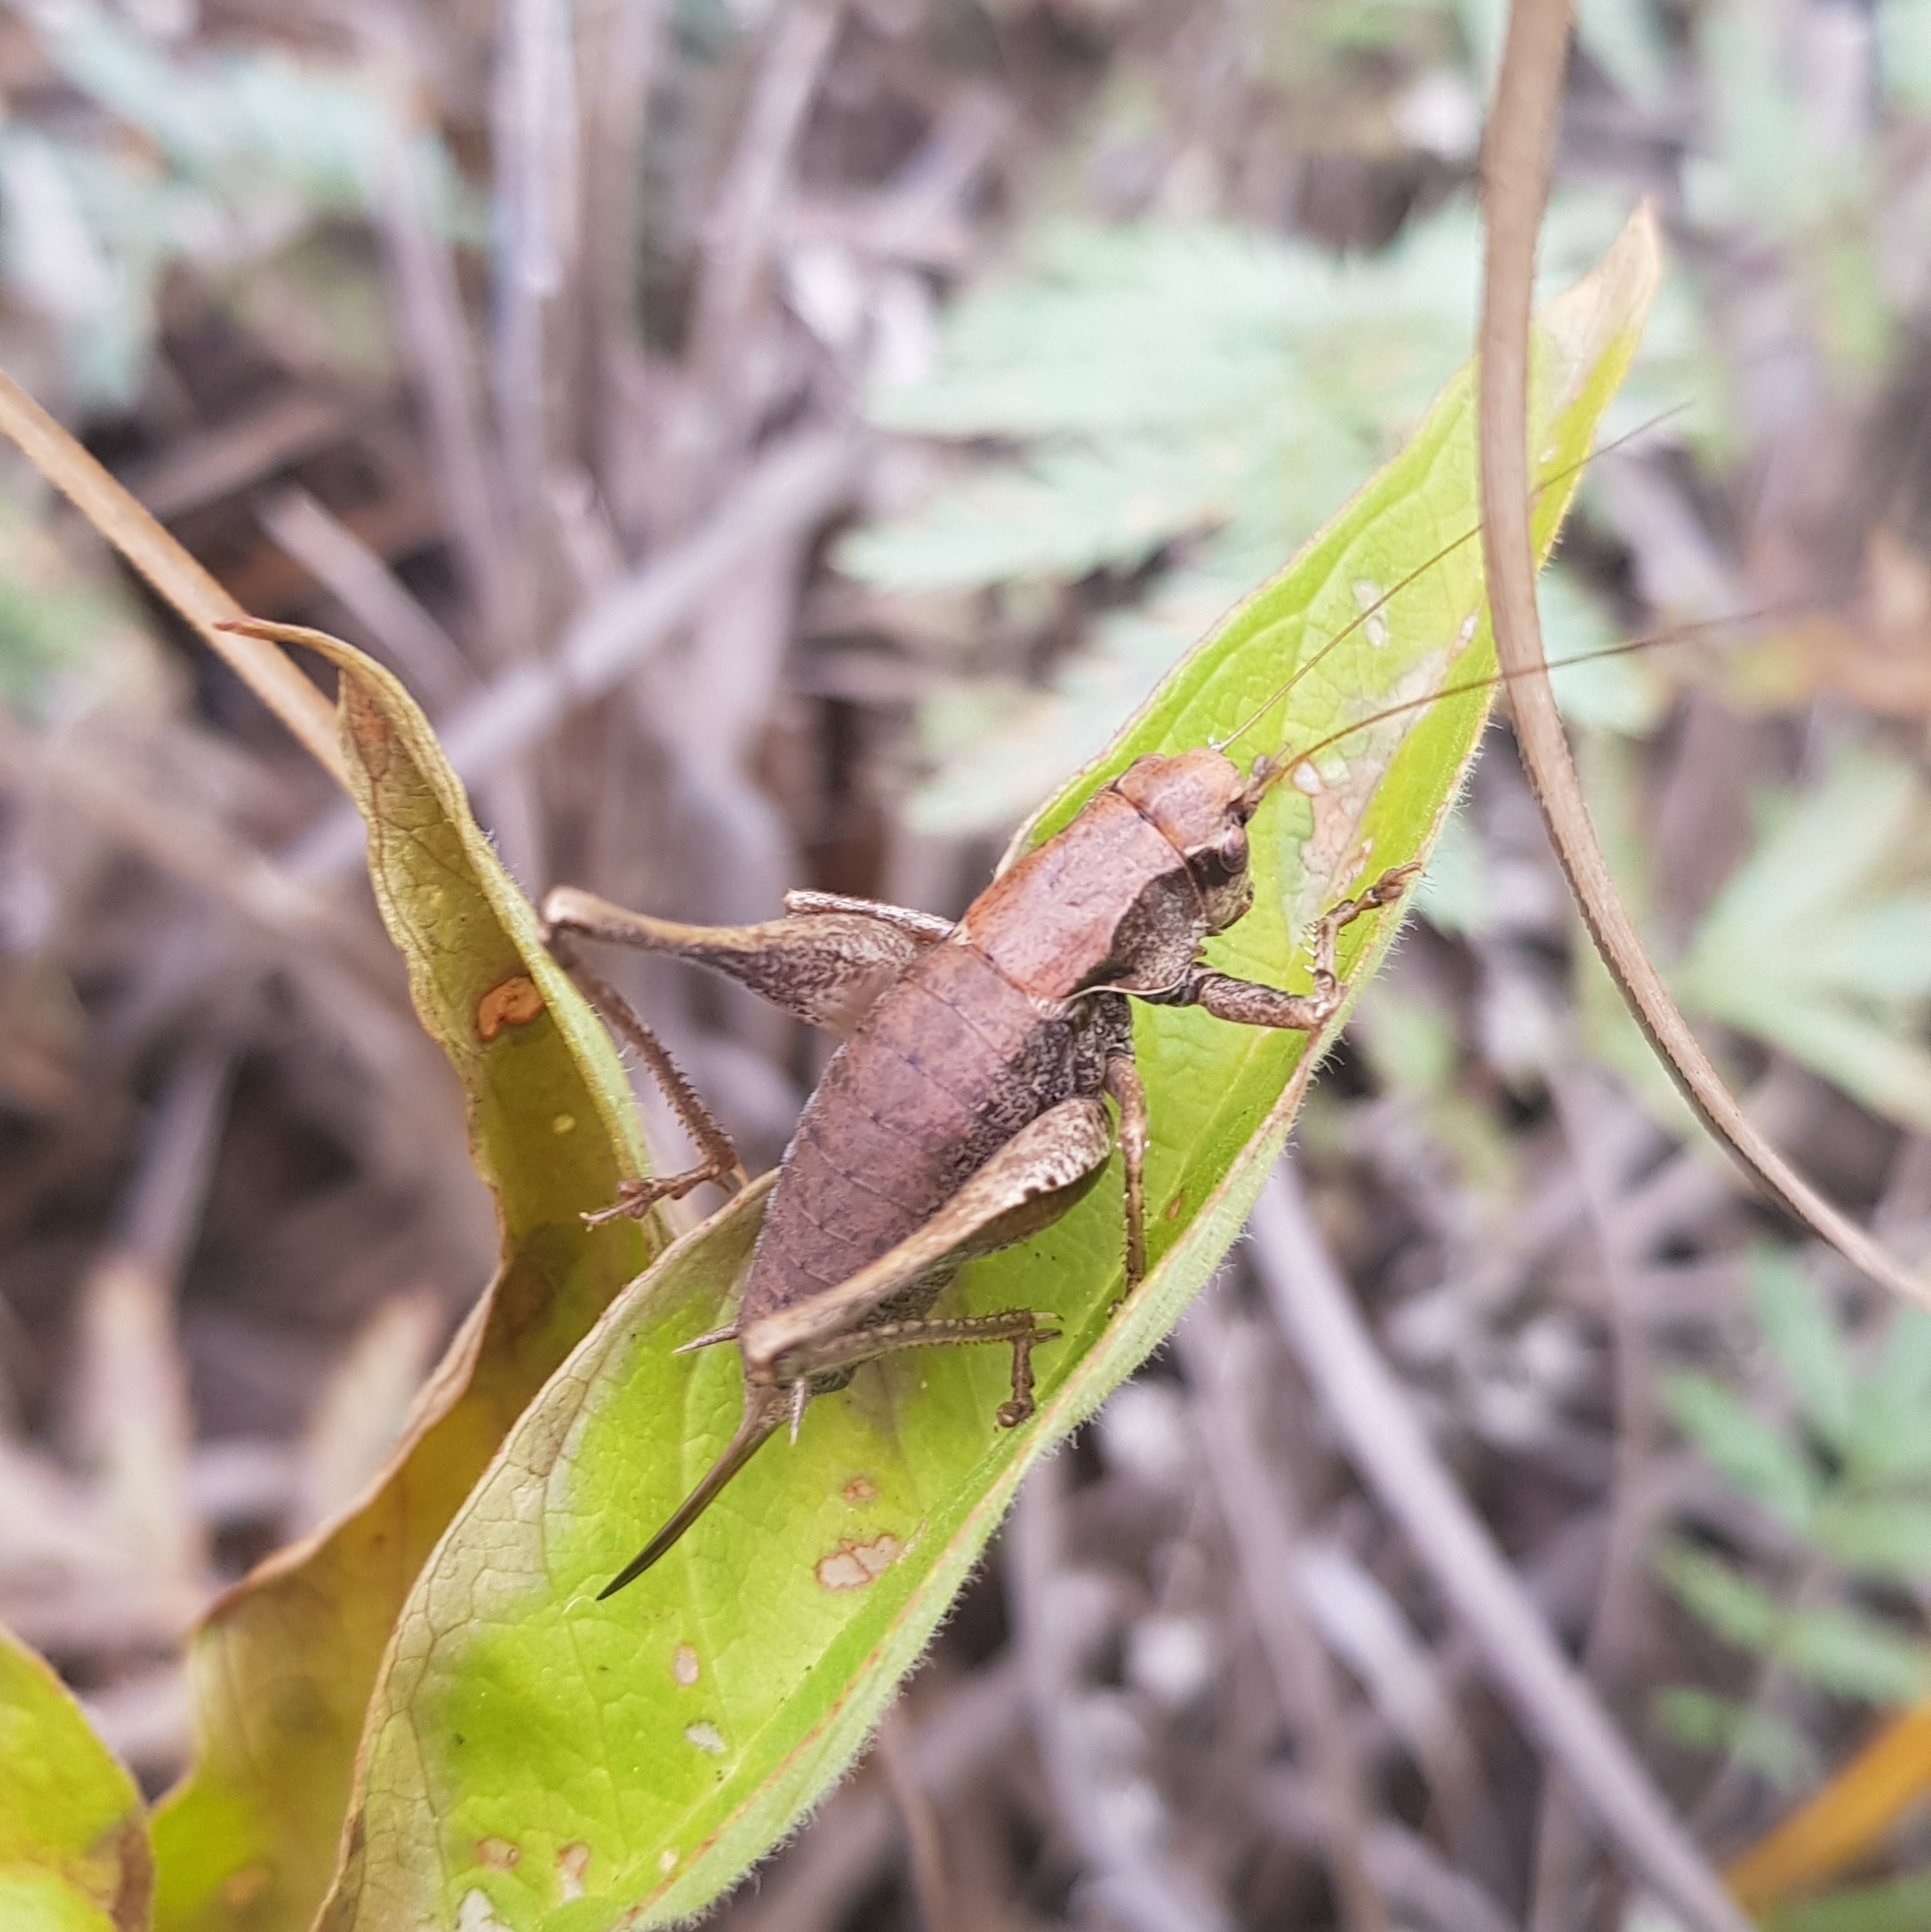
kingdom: Animalia
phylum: Arthropoda
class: Insecta
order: Orthoptera
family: Tettigoniidae
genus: Pholidoptera
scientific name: Pholidoptera griseoaptera
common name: Dark bush-cricket
